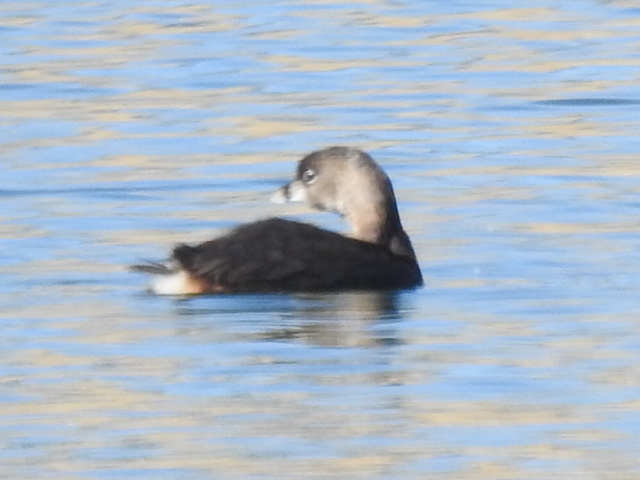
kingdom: Animalia
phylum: Chordata
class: Aves
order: Podicipediformes
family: Podicipedidae
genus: Podilymbus
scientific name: Podilymbus podiceps
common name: Pied-billed grebe
